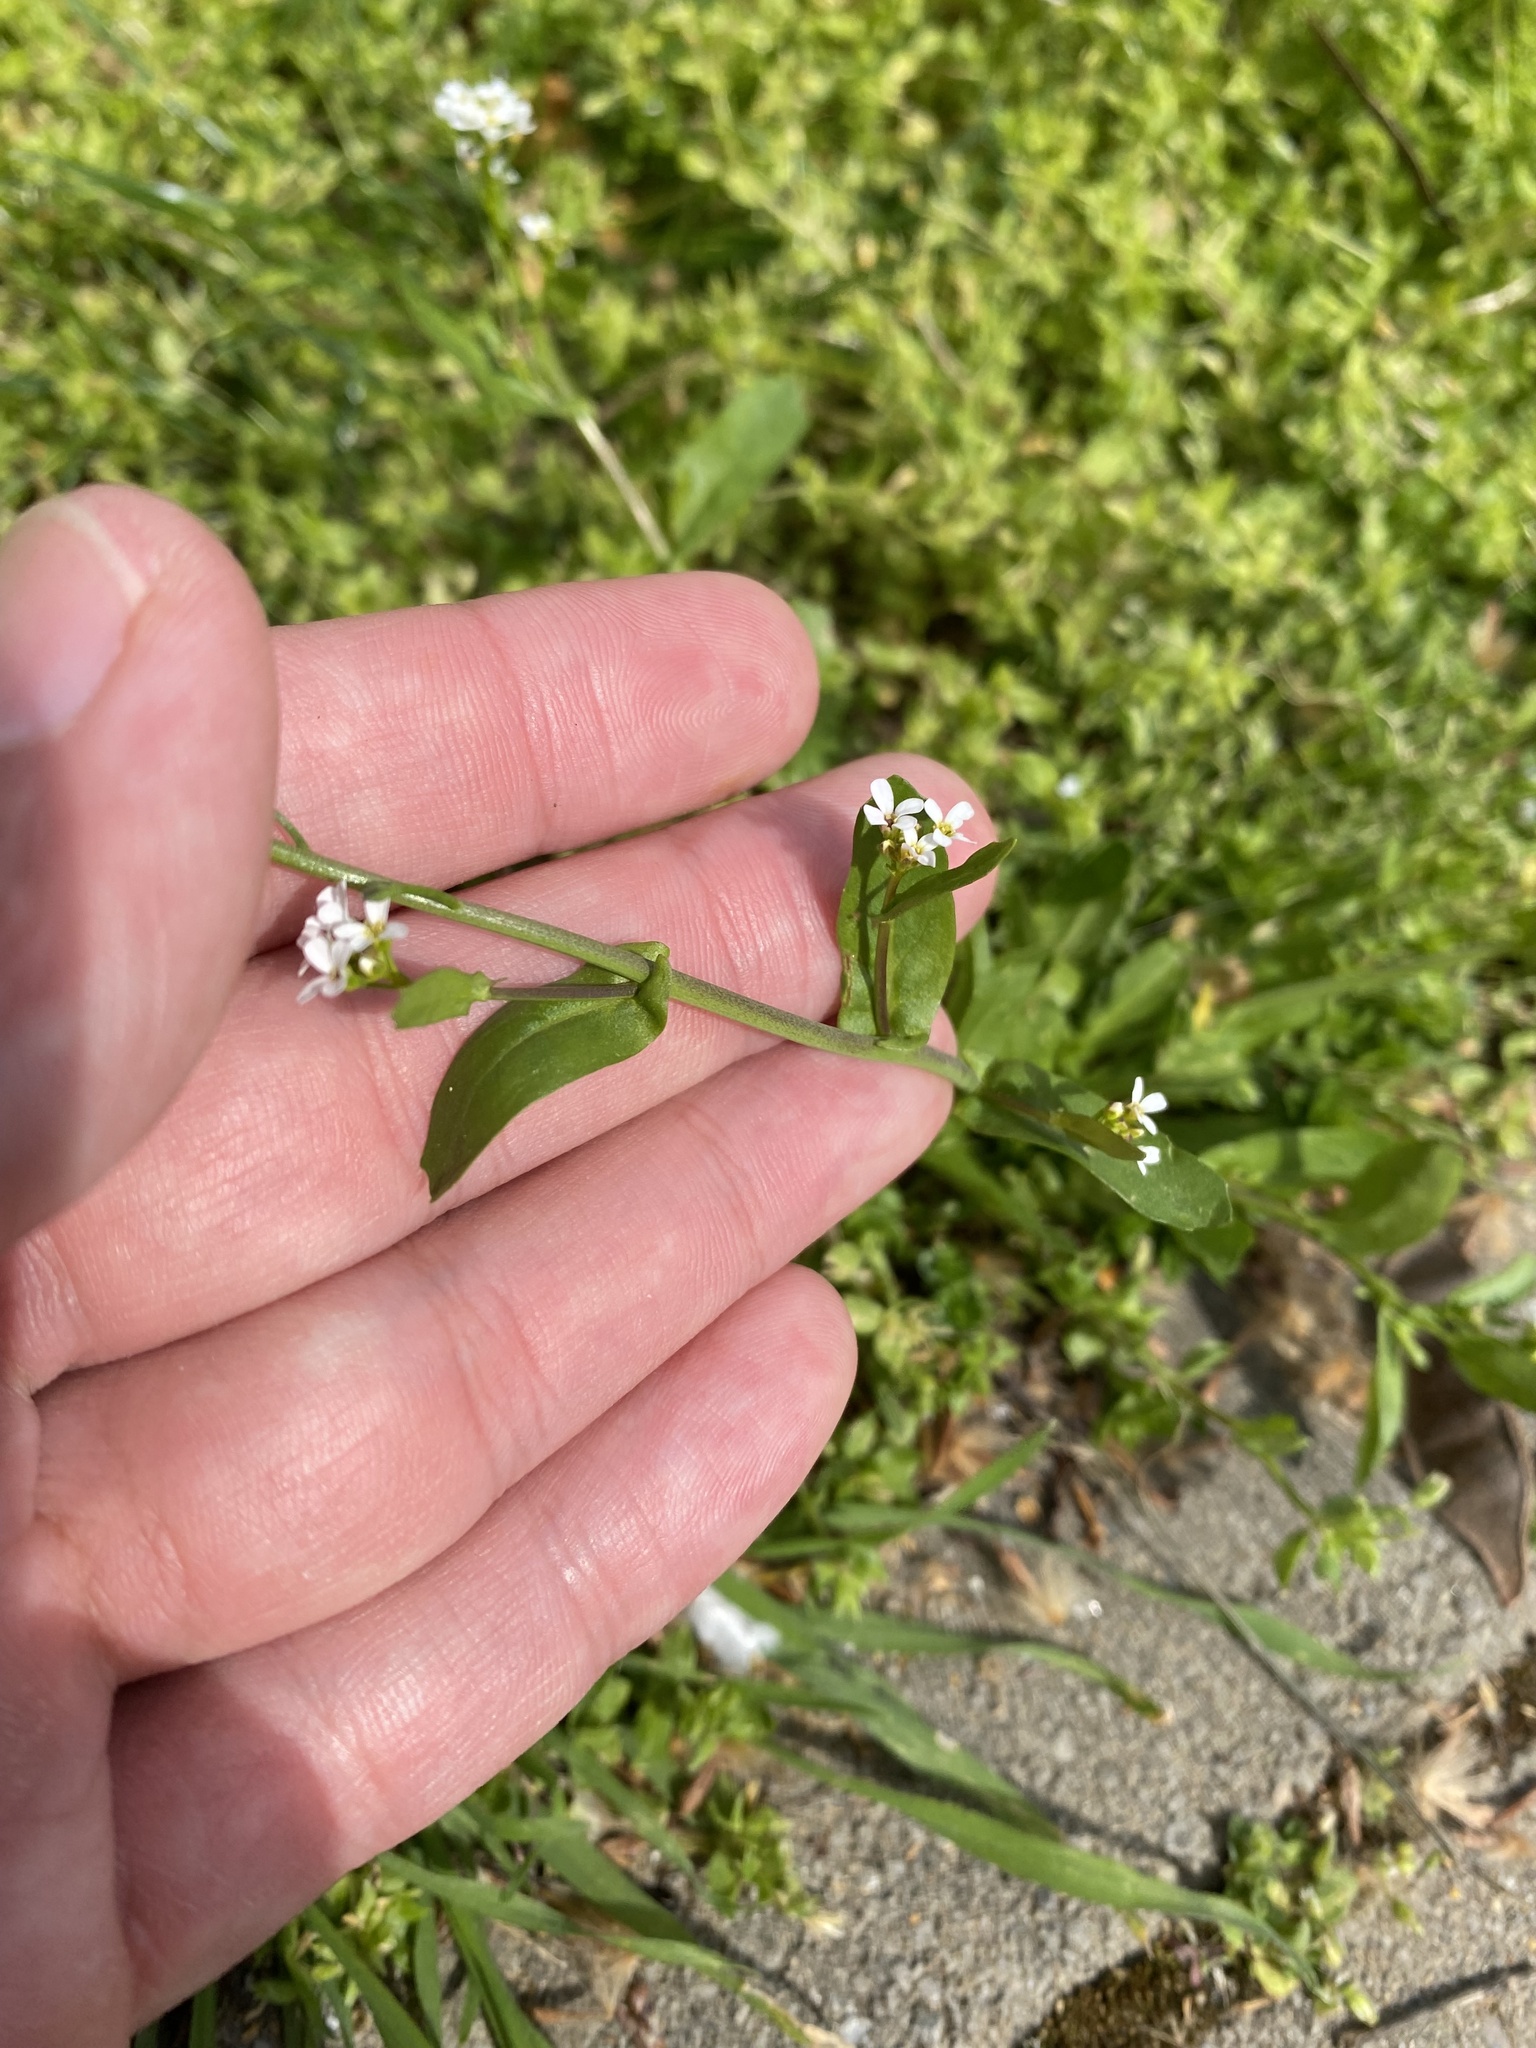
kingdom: Plantae
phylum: Tracheophyta
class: Magnoliopsida
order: Brassicales
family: Brassicaceae
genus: Calepina
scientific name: Calepina irregularis
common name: White ballmustard
